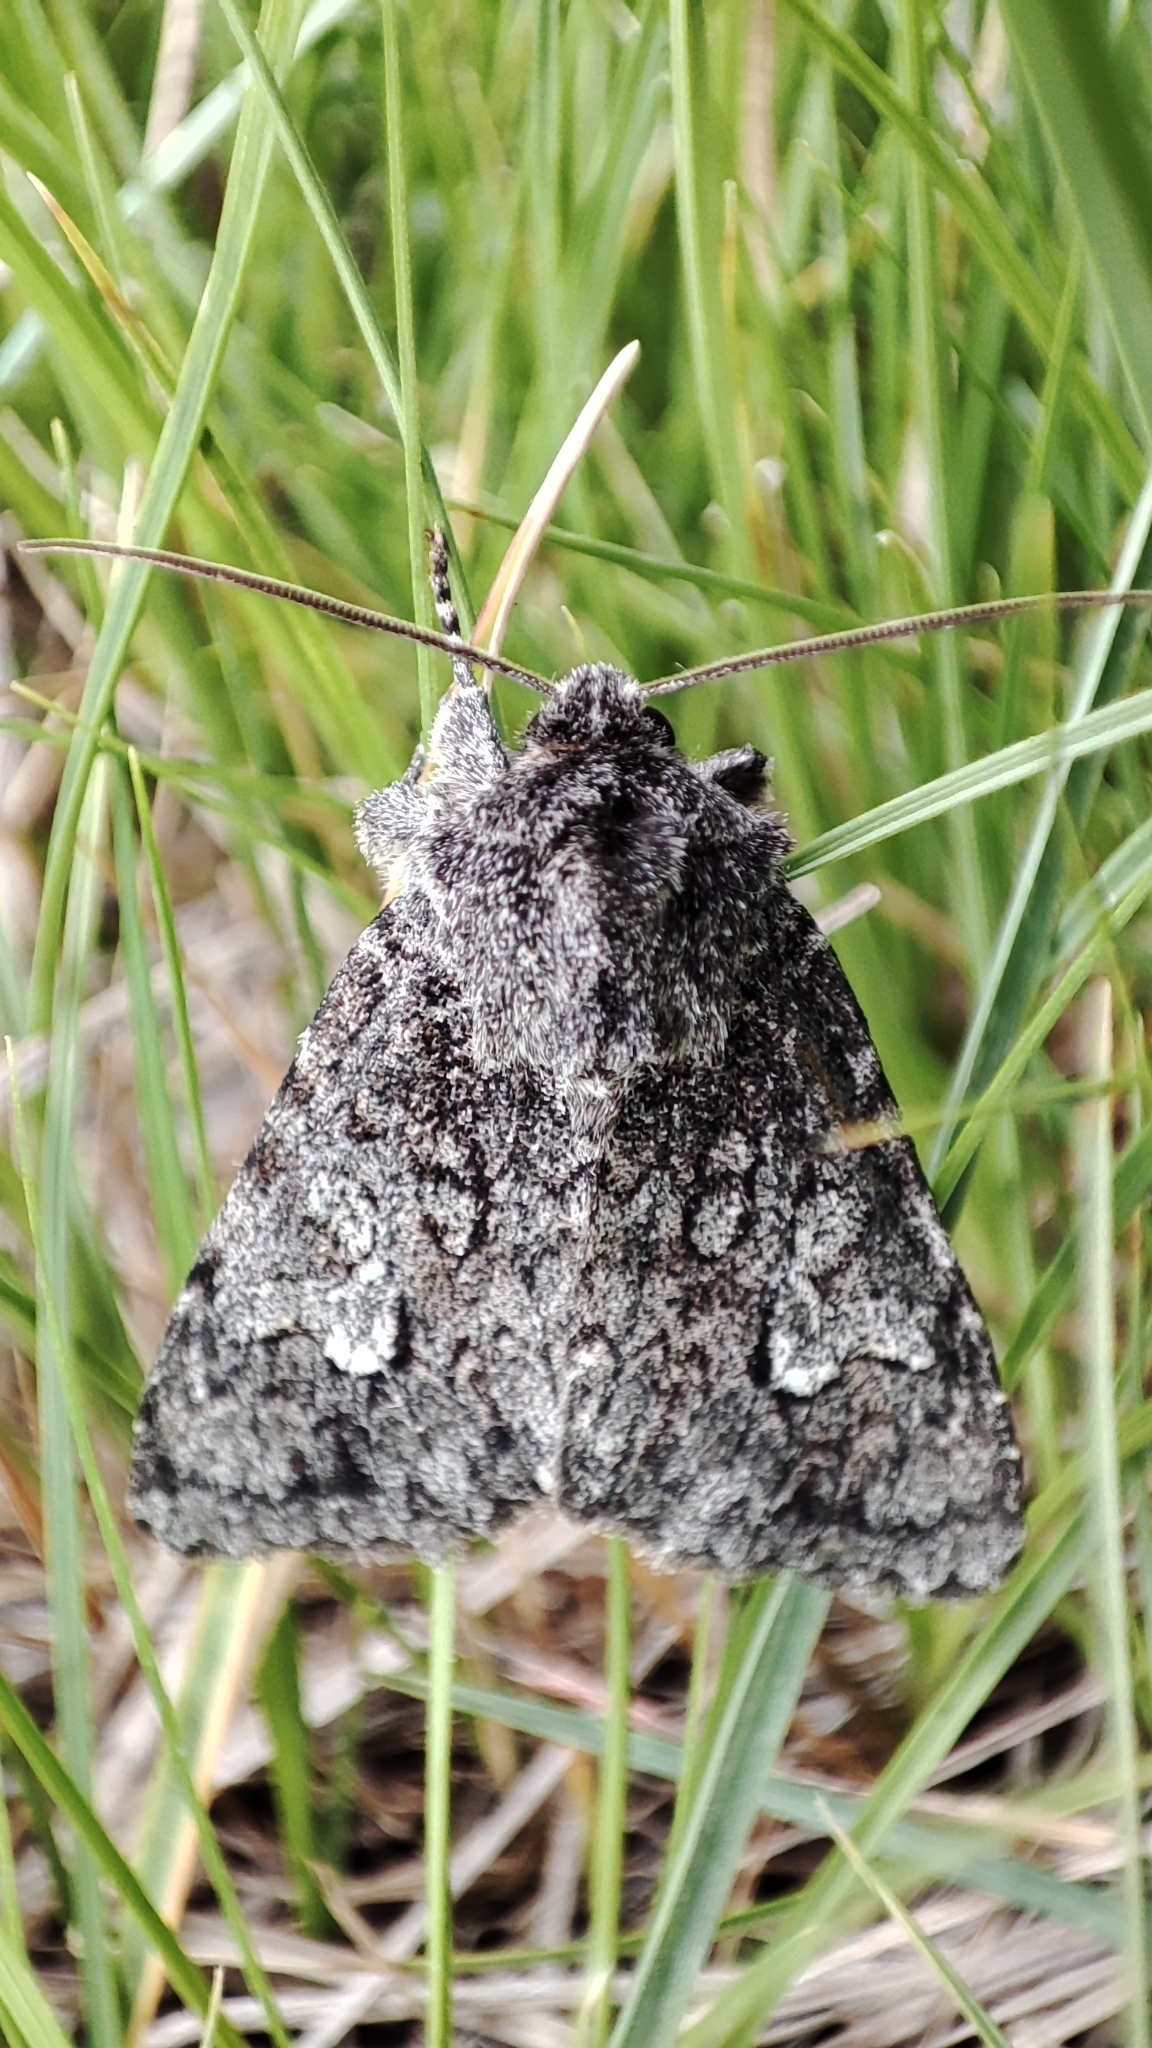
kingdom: Animalia
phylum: Arthropoda
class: Insecta
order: Lepidoptera
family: Noctuidae
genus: Polia
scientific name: Polia vespertilio
